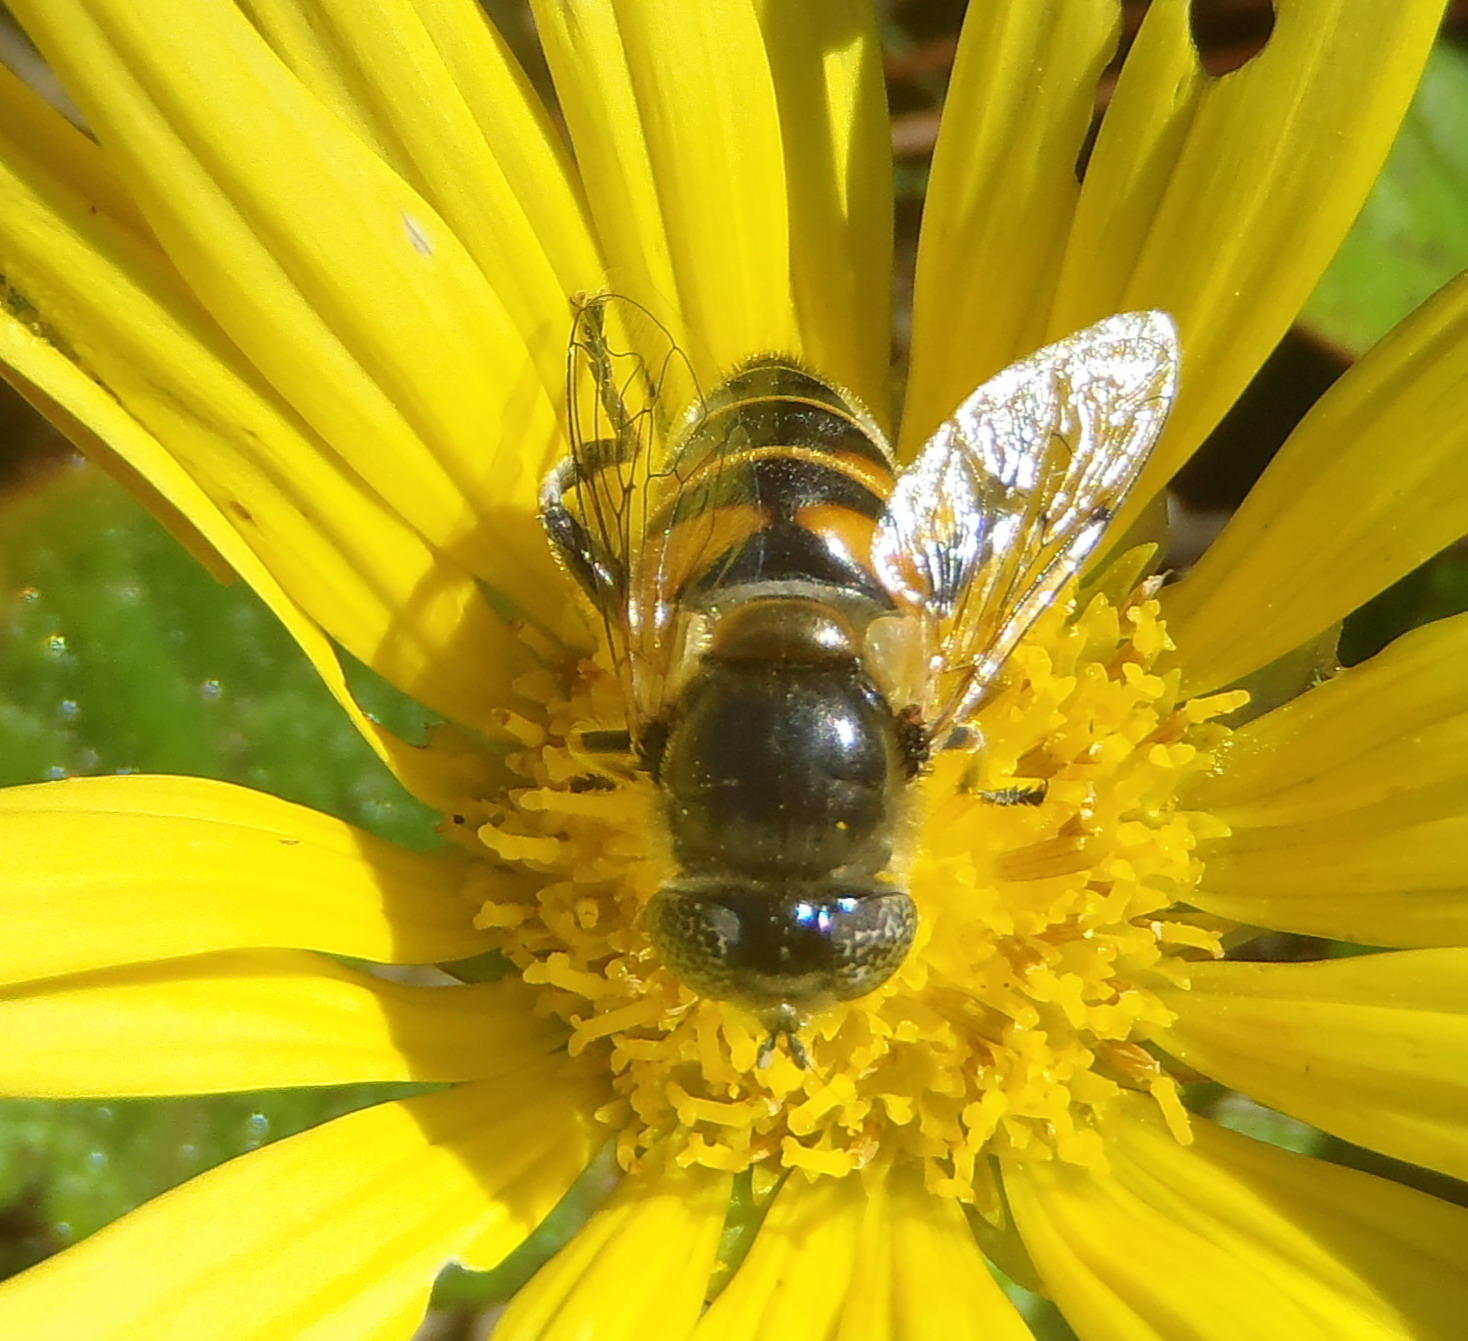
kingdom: Animalia
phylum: Arthropoda
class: Insecta
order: Diptera
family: Syrphidae
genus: Eristalinus
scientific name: Eristalinus modestus
